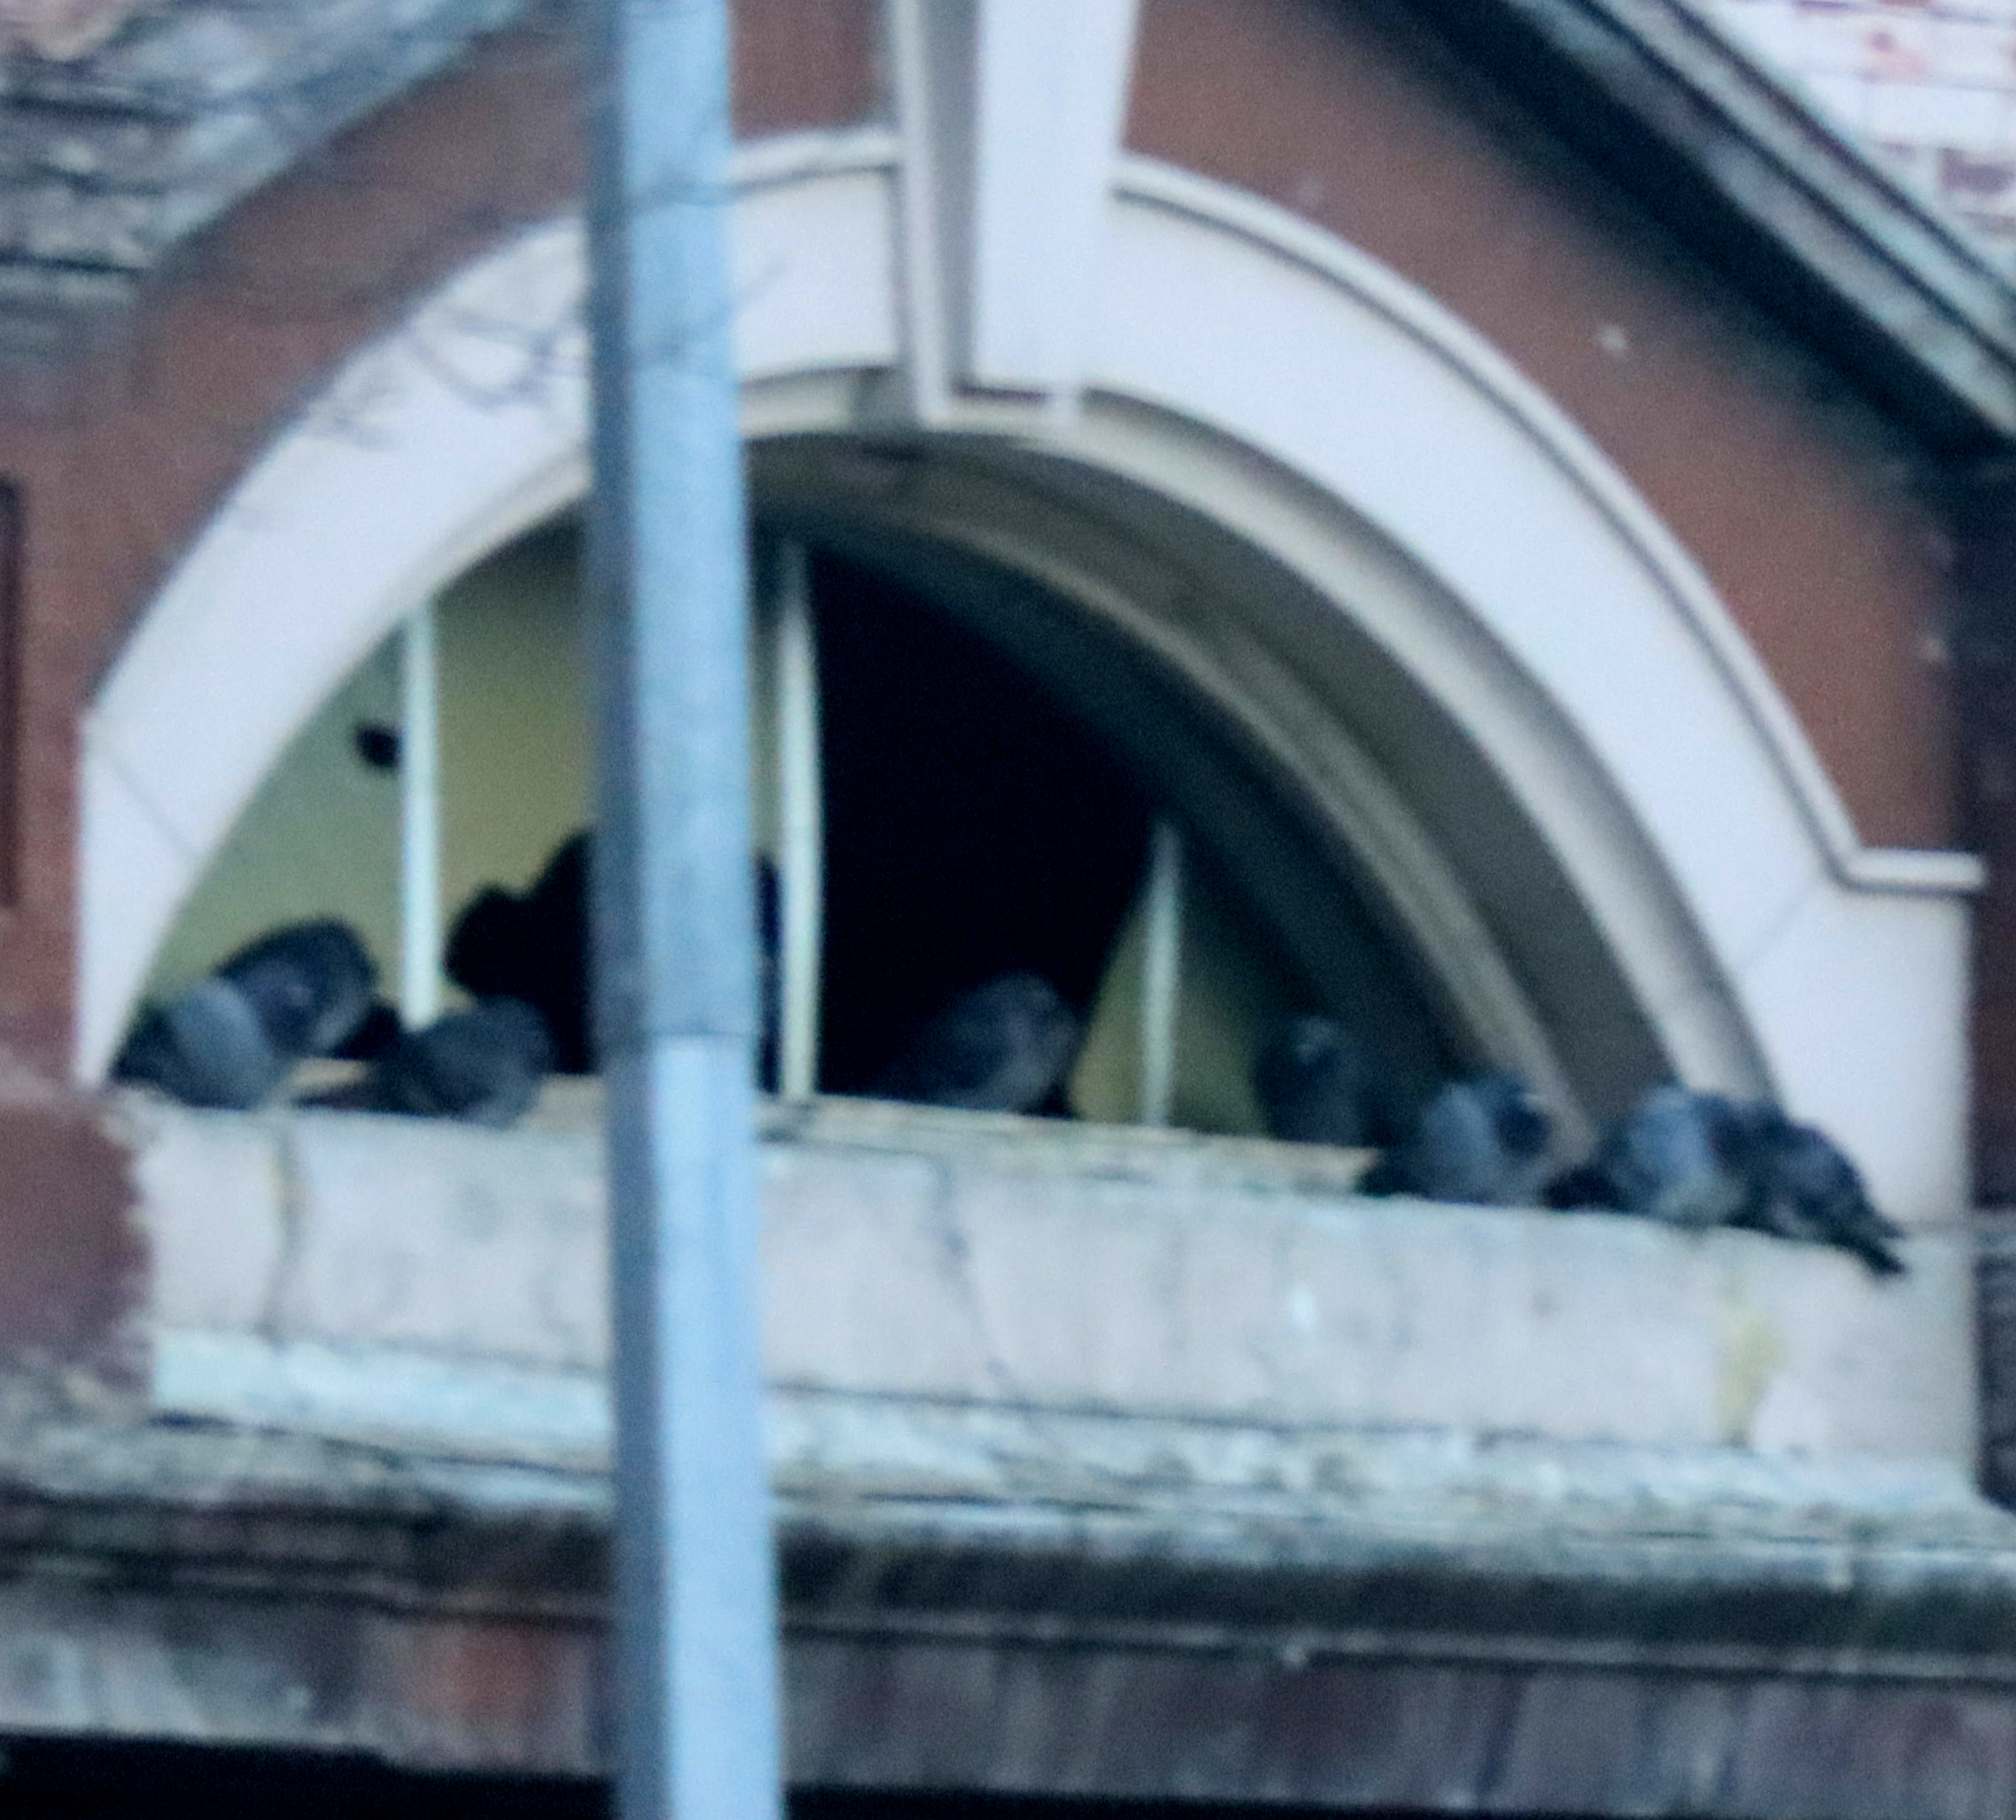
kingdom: Animalia
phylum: Chordata
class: Aves
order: Columbiformes
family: Columbidae
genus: Columba
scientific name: Columba livia
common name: Rock pigeon
